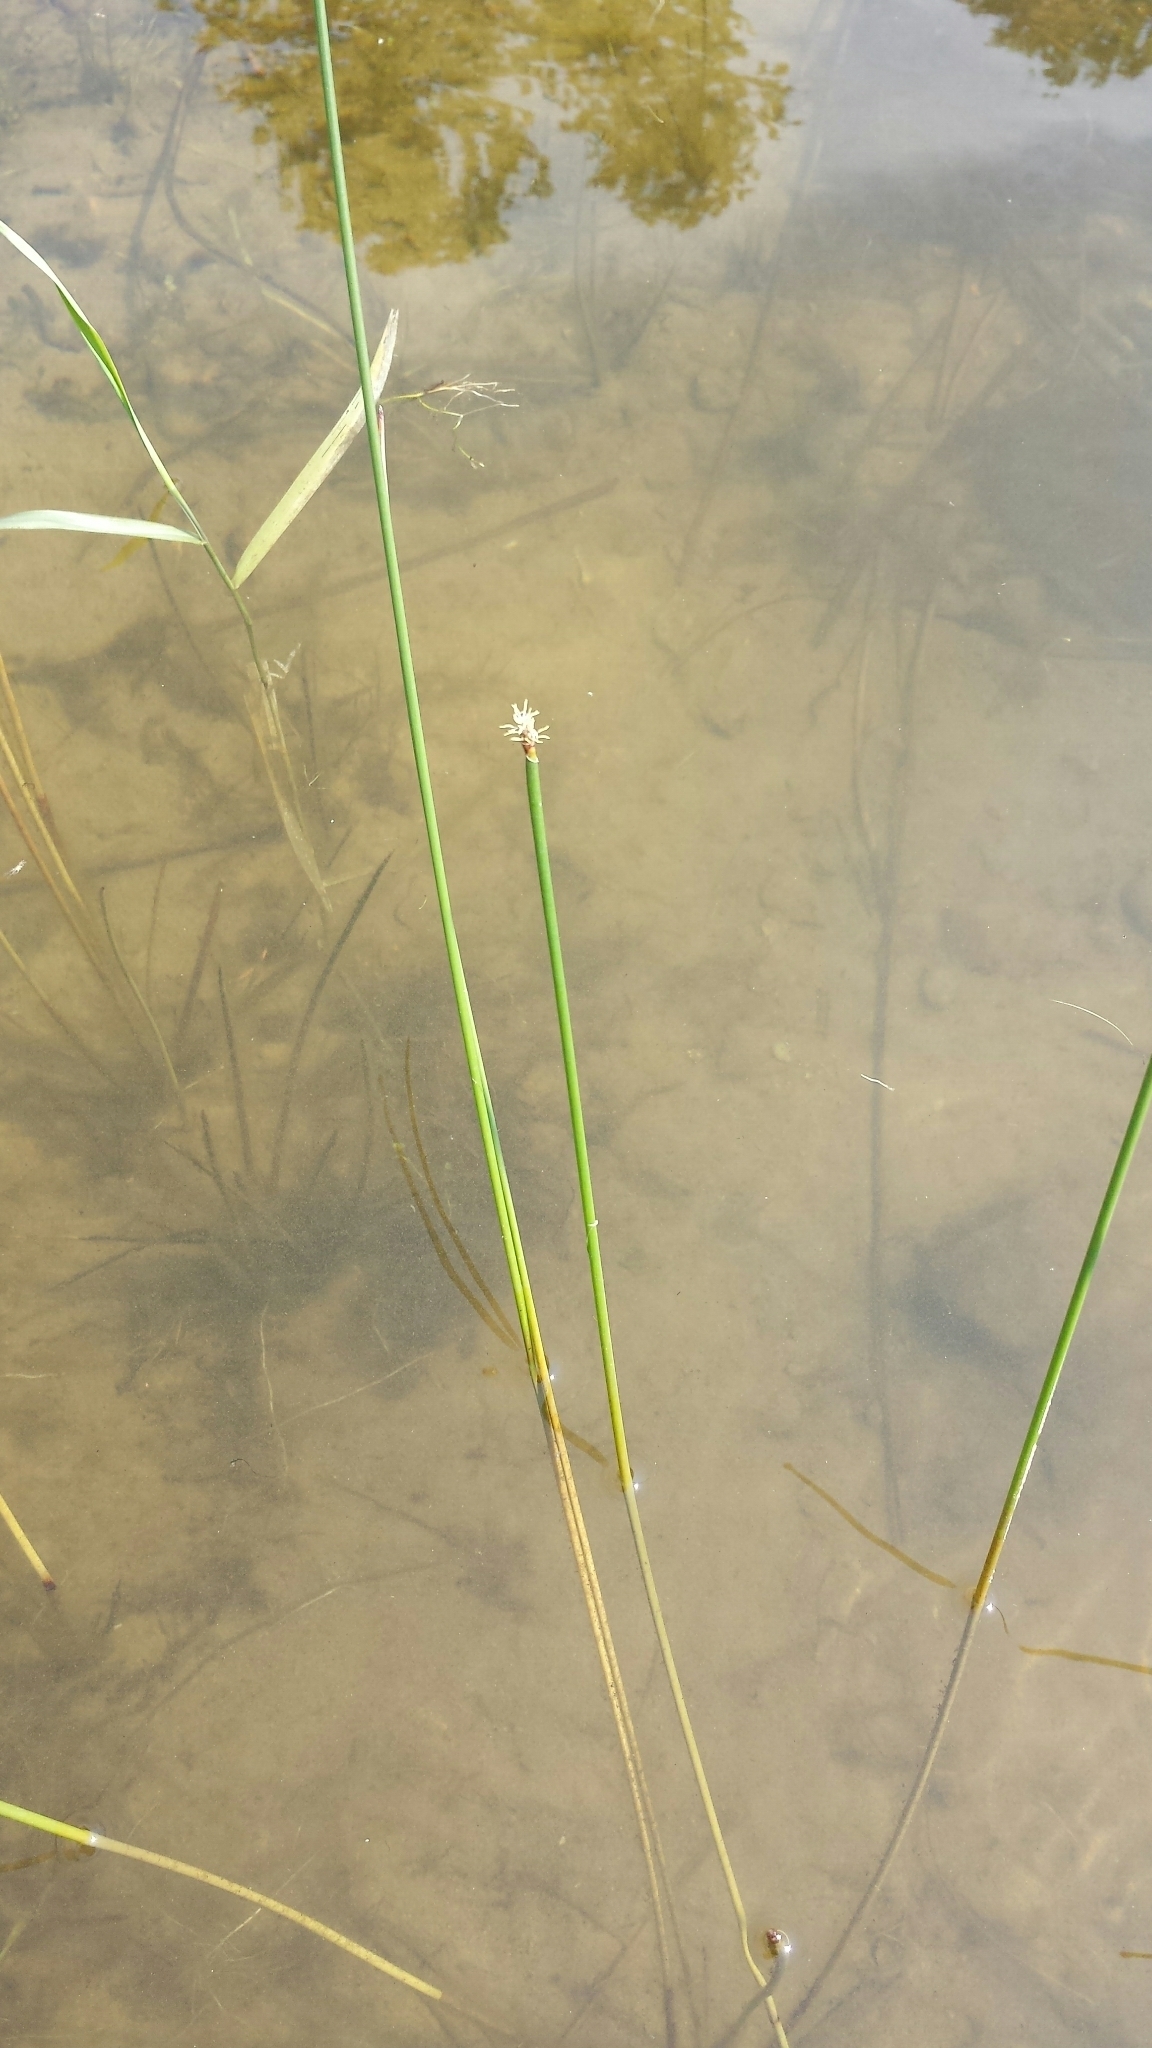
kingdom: Plantae
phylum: Tracheophyta
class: Liliopsida
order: Poales
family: Cyperaceae
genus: Eleocharis
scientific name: Eleocharis palustris
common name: Common spike-rush
